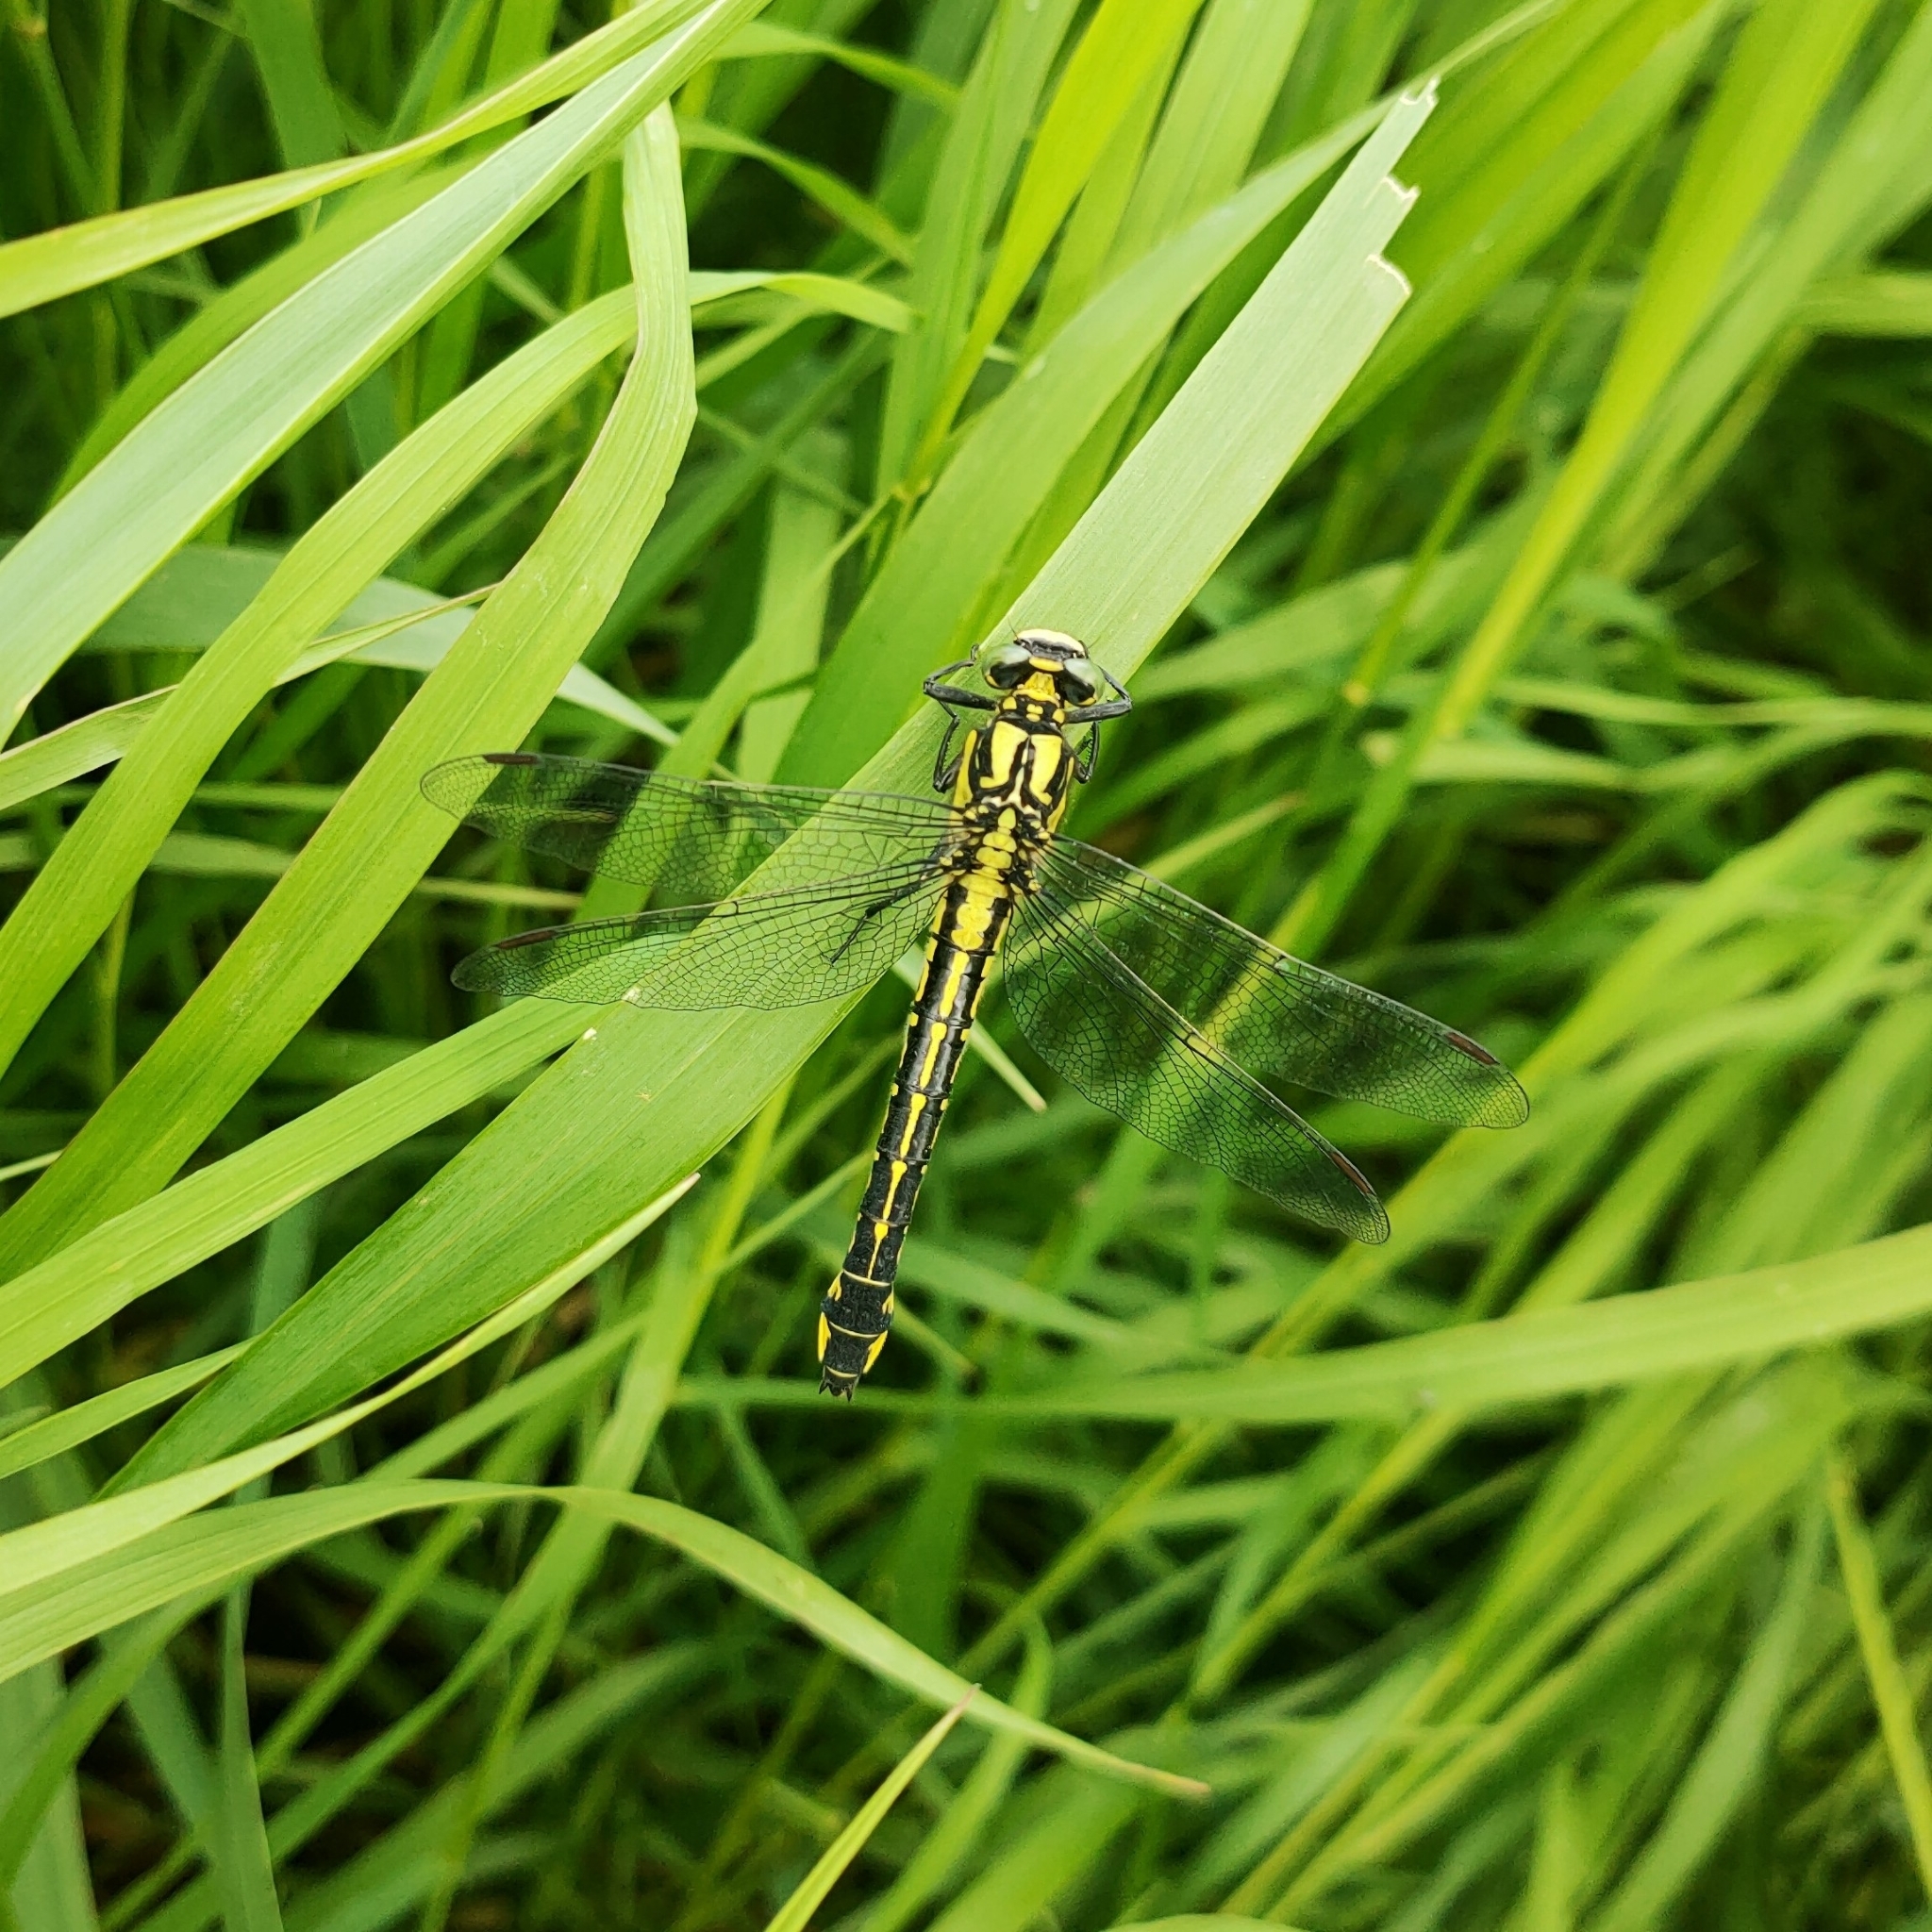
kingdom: Animalia
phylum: Arthropoda
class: Insecta
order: Odonata
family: Gomphidae
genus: Gomphus
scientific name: Gomphus vulgatissimus
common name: Club-tailed dragonfly
